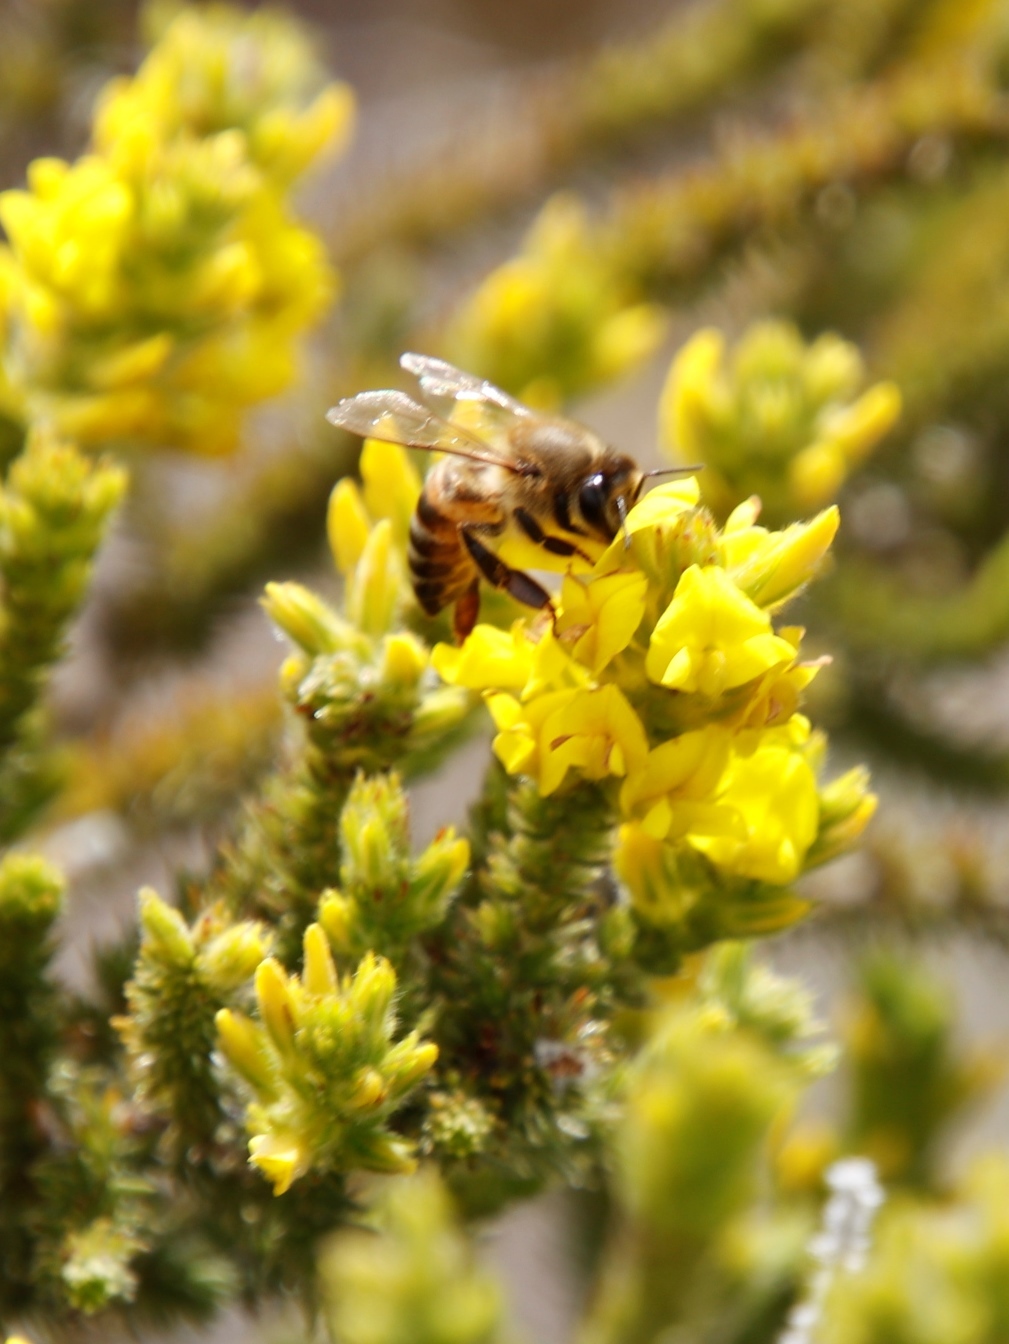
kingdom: Animalia
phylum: Arthropoda
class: Insecta
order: Hymenoptera
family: Apidae
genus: Apis
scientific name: Apis mellifera
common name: Honey bee
